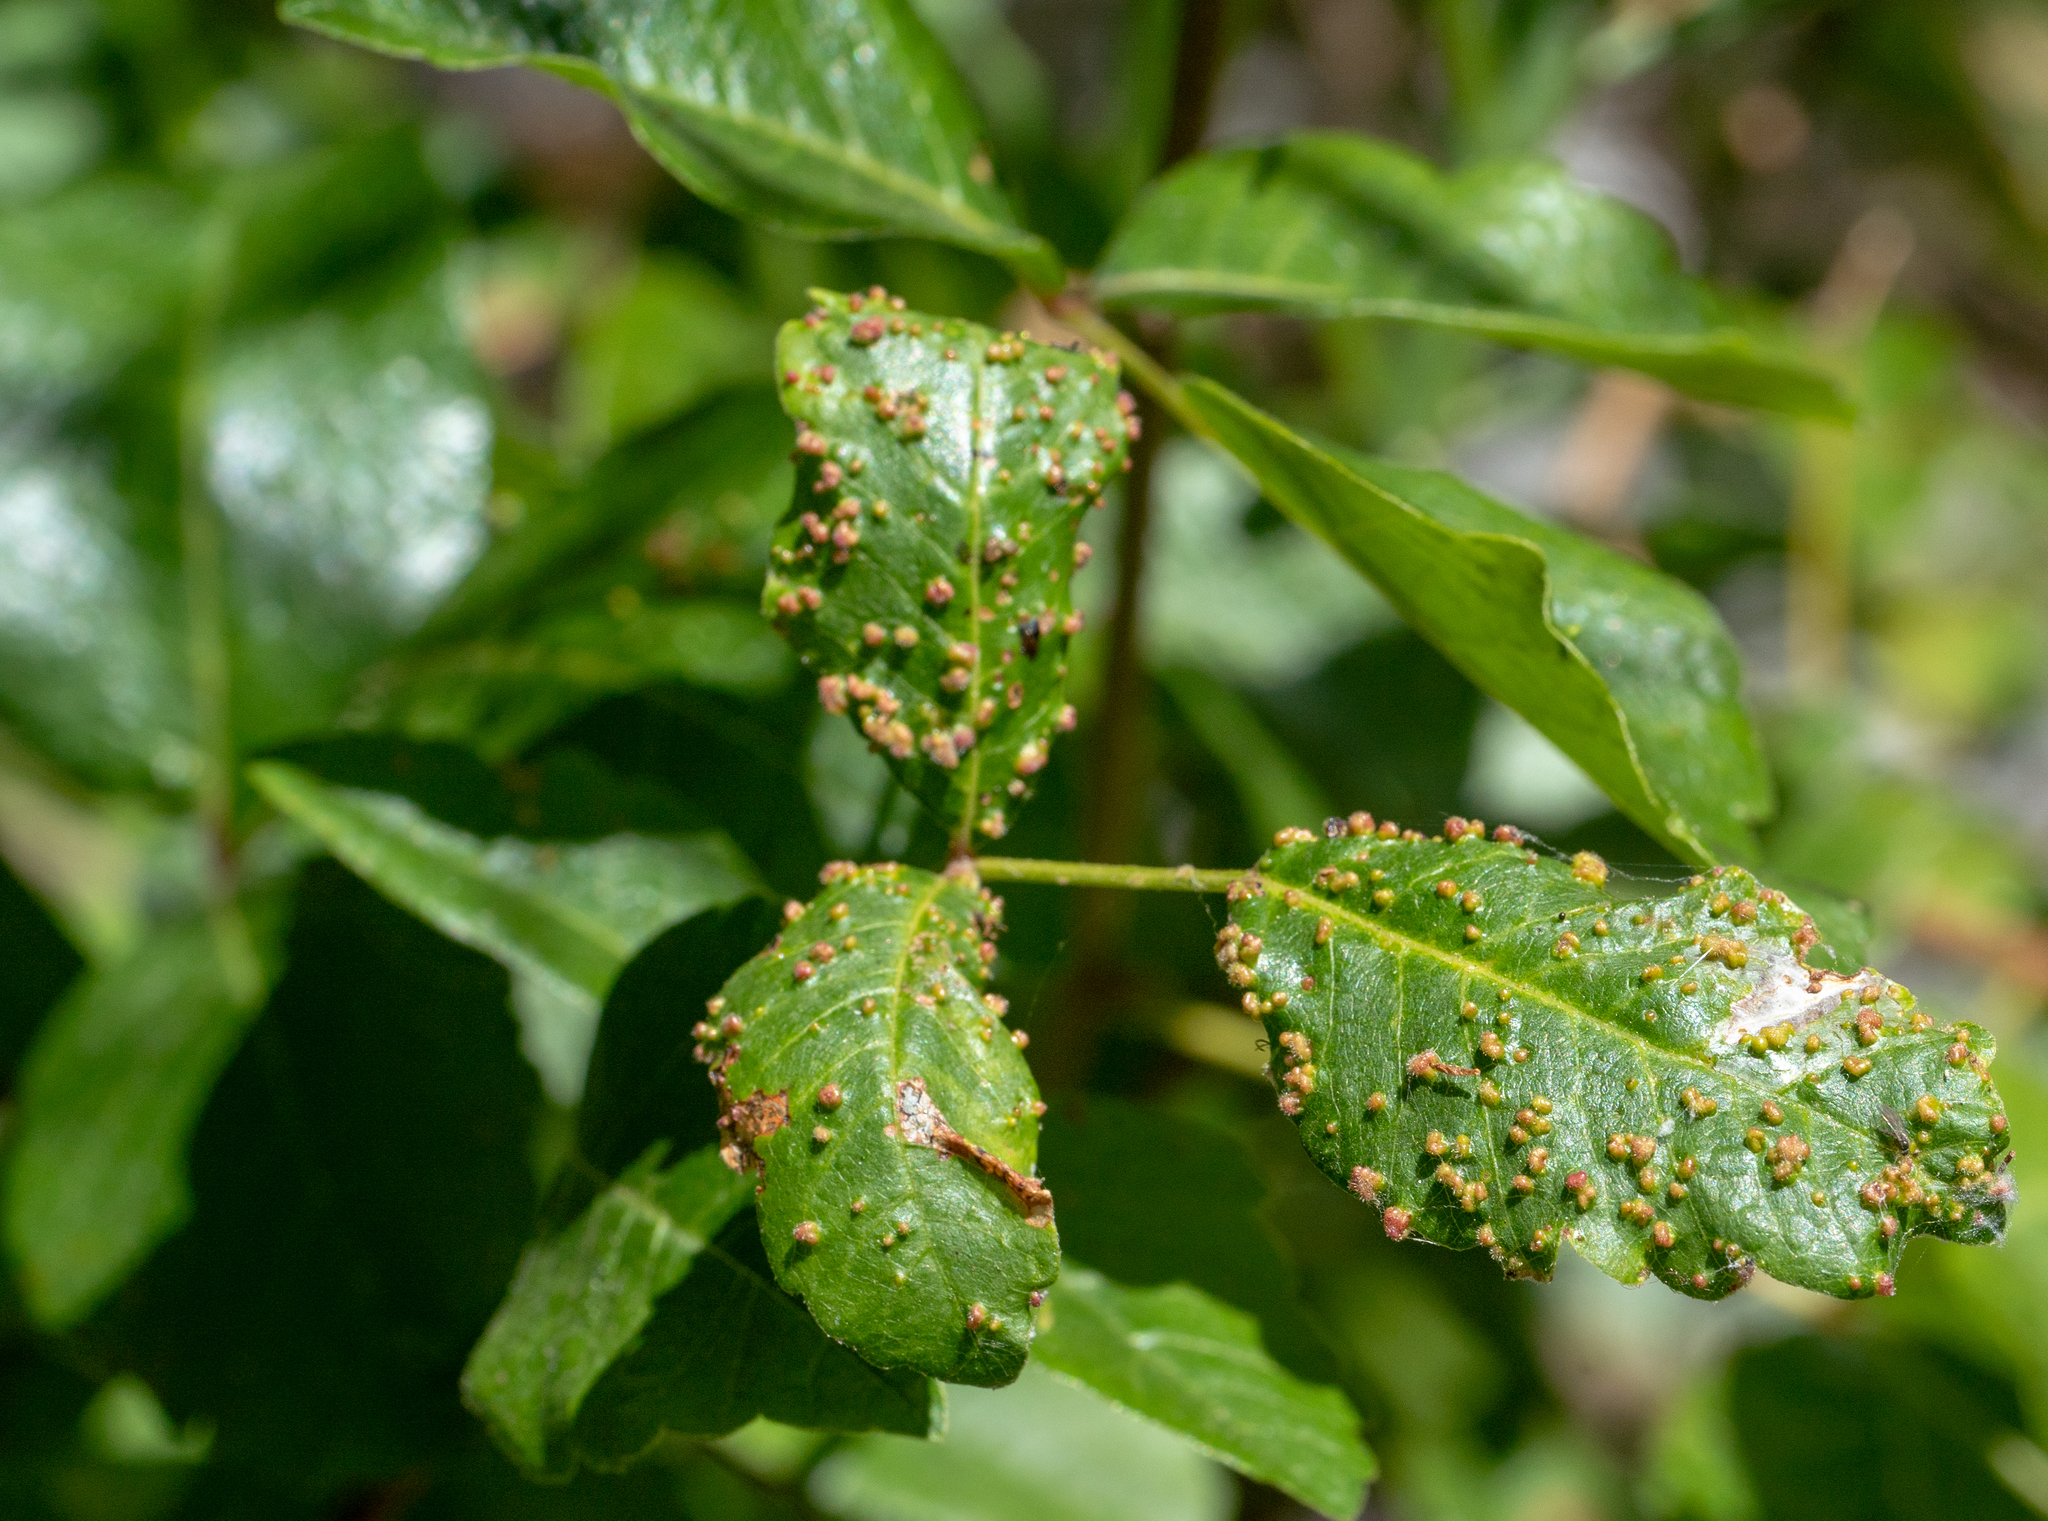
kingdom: Plantae
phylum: Tracheophyta
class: Magnoliopsida
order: Sapindales
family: Anacardiaceae
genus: Toxicodendron
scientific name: Toxicodendron diversilobum
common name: Pacific poison-oak
